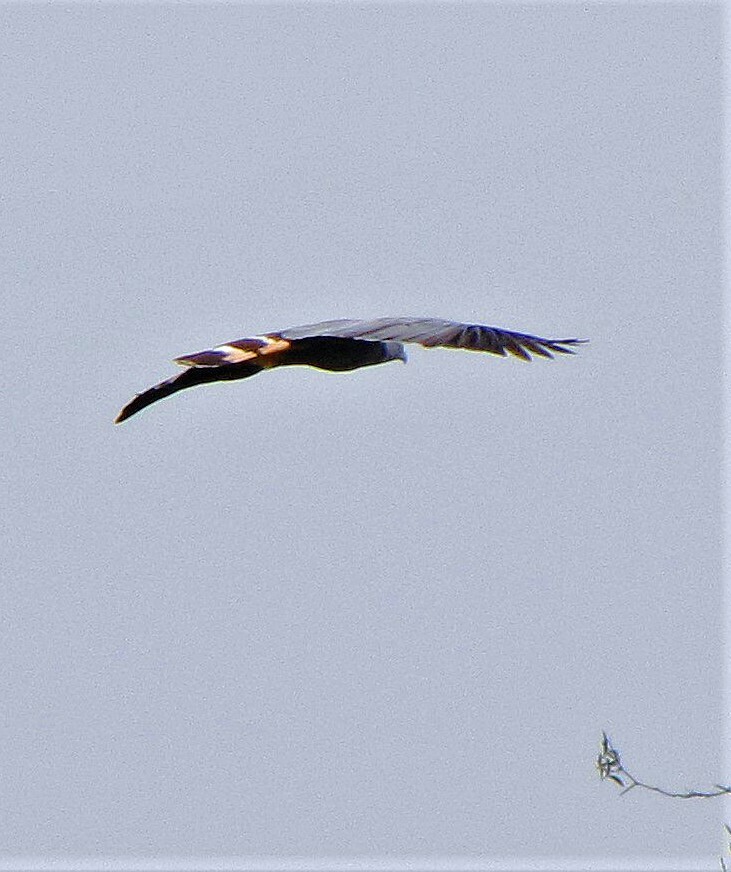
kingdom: Animalia
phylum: Chordata
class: Aves
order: Accipitriformes
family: Accipitridae
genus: Geranospiza
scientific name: Geranospiza caerulescens
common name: Crane hawk
